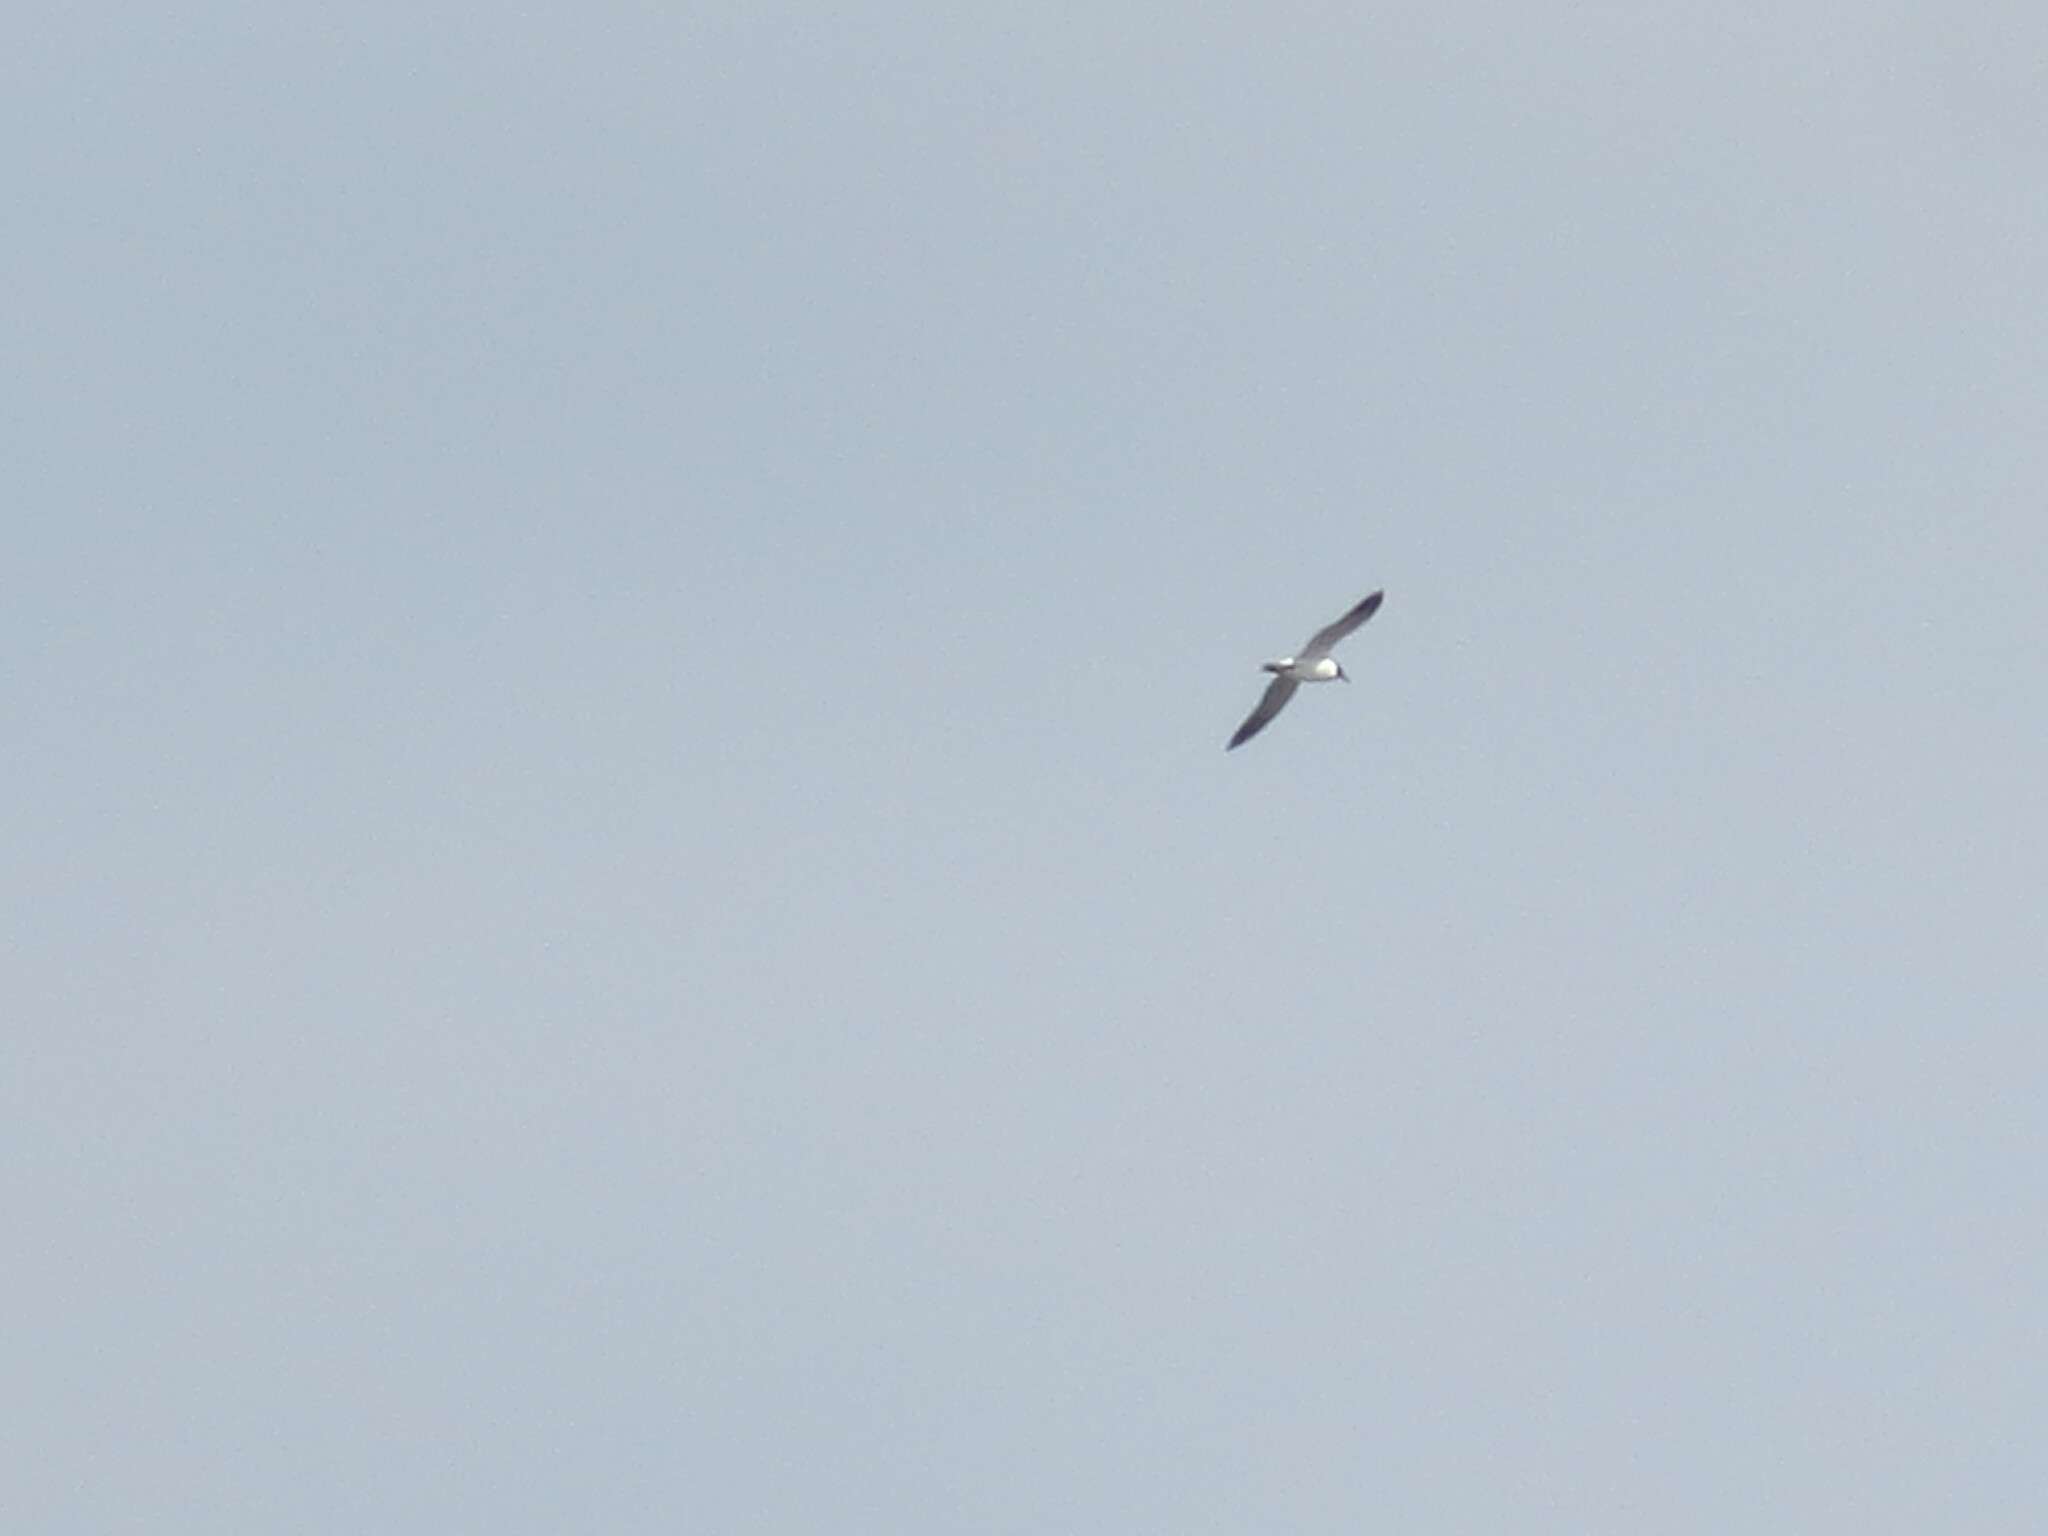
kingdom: Animalia
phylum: Chordata
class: Aves
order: Charadriiformes
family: Laridae
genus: Leucophaeus
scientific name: Leucophaeus atricilla
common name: Laughing gull
